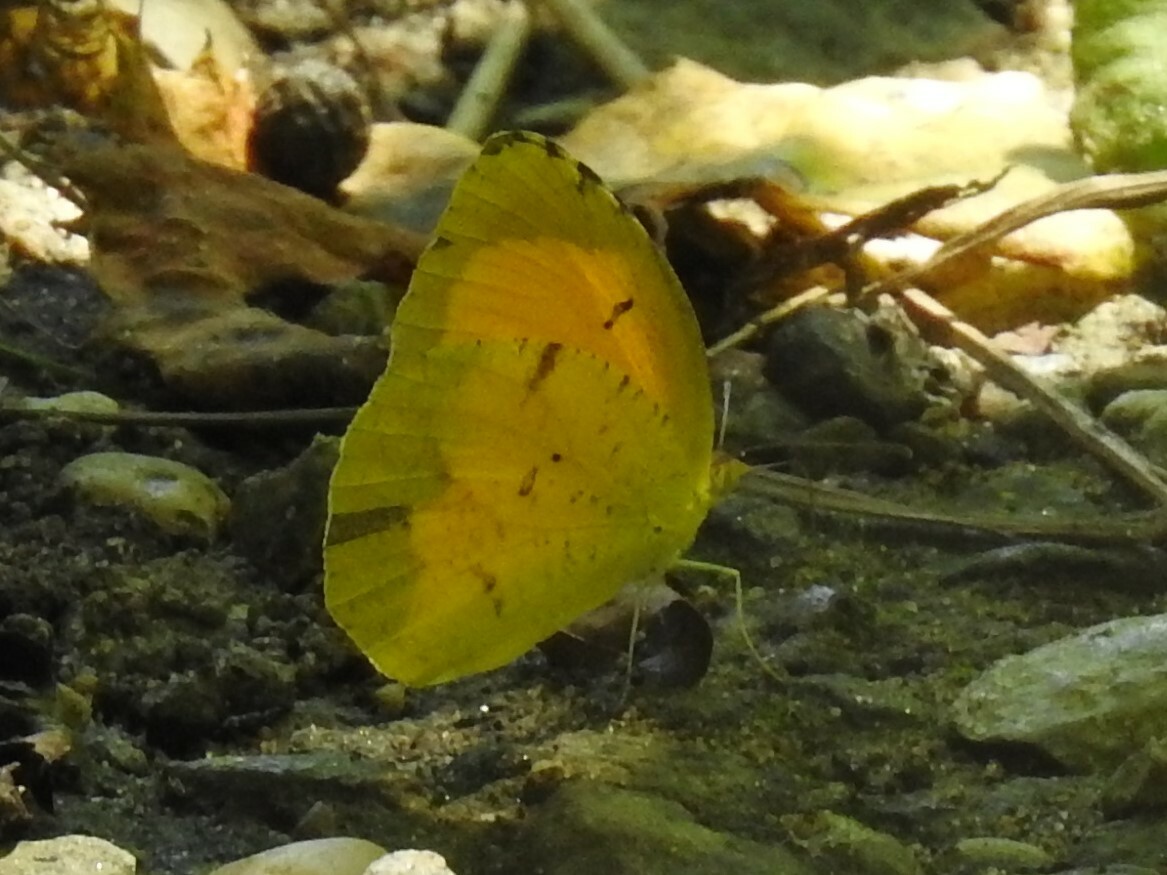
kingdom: Animalia
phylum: Arthropoda
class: Insecta
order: Lepidoptera
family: Pieridae
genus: Abaeis
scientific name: Abaeis nicippe
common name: Sleepy orange
